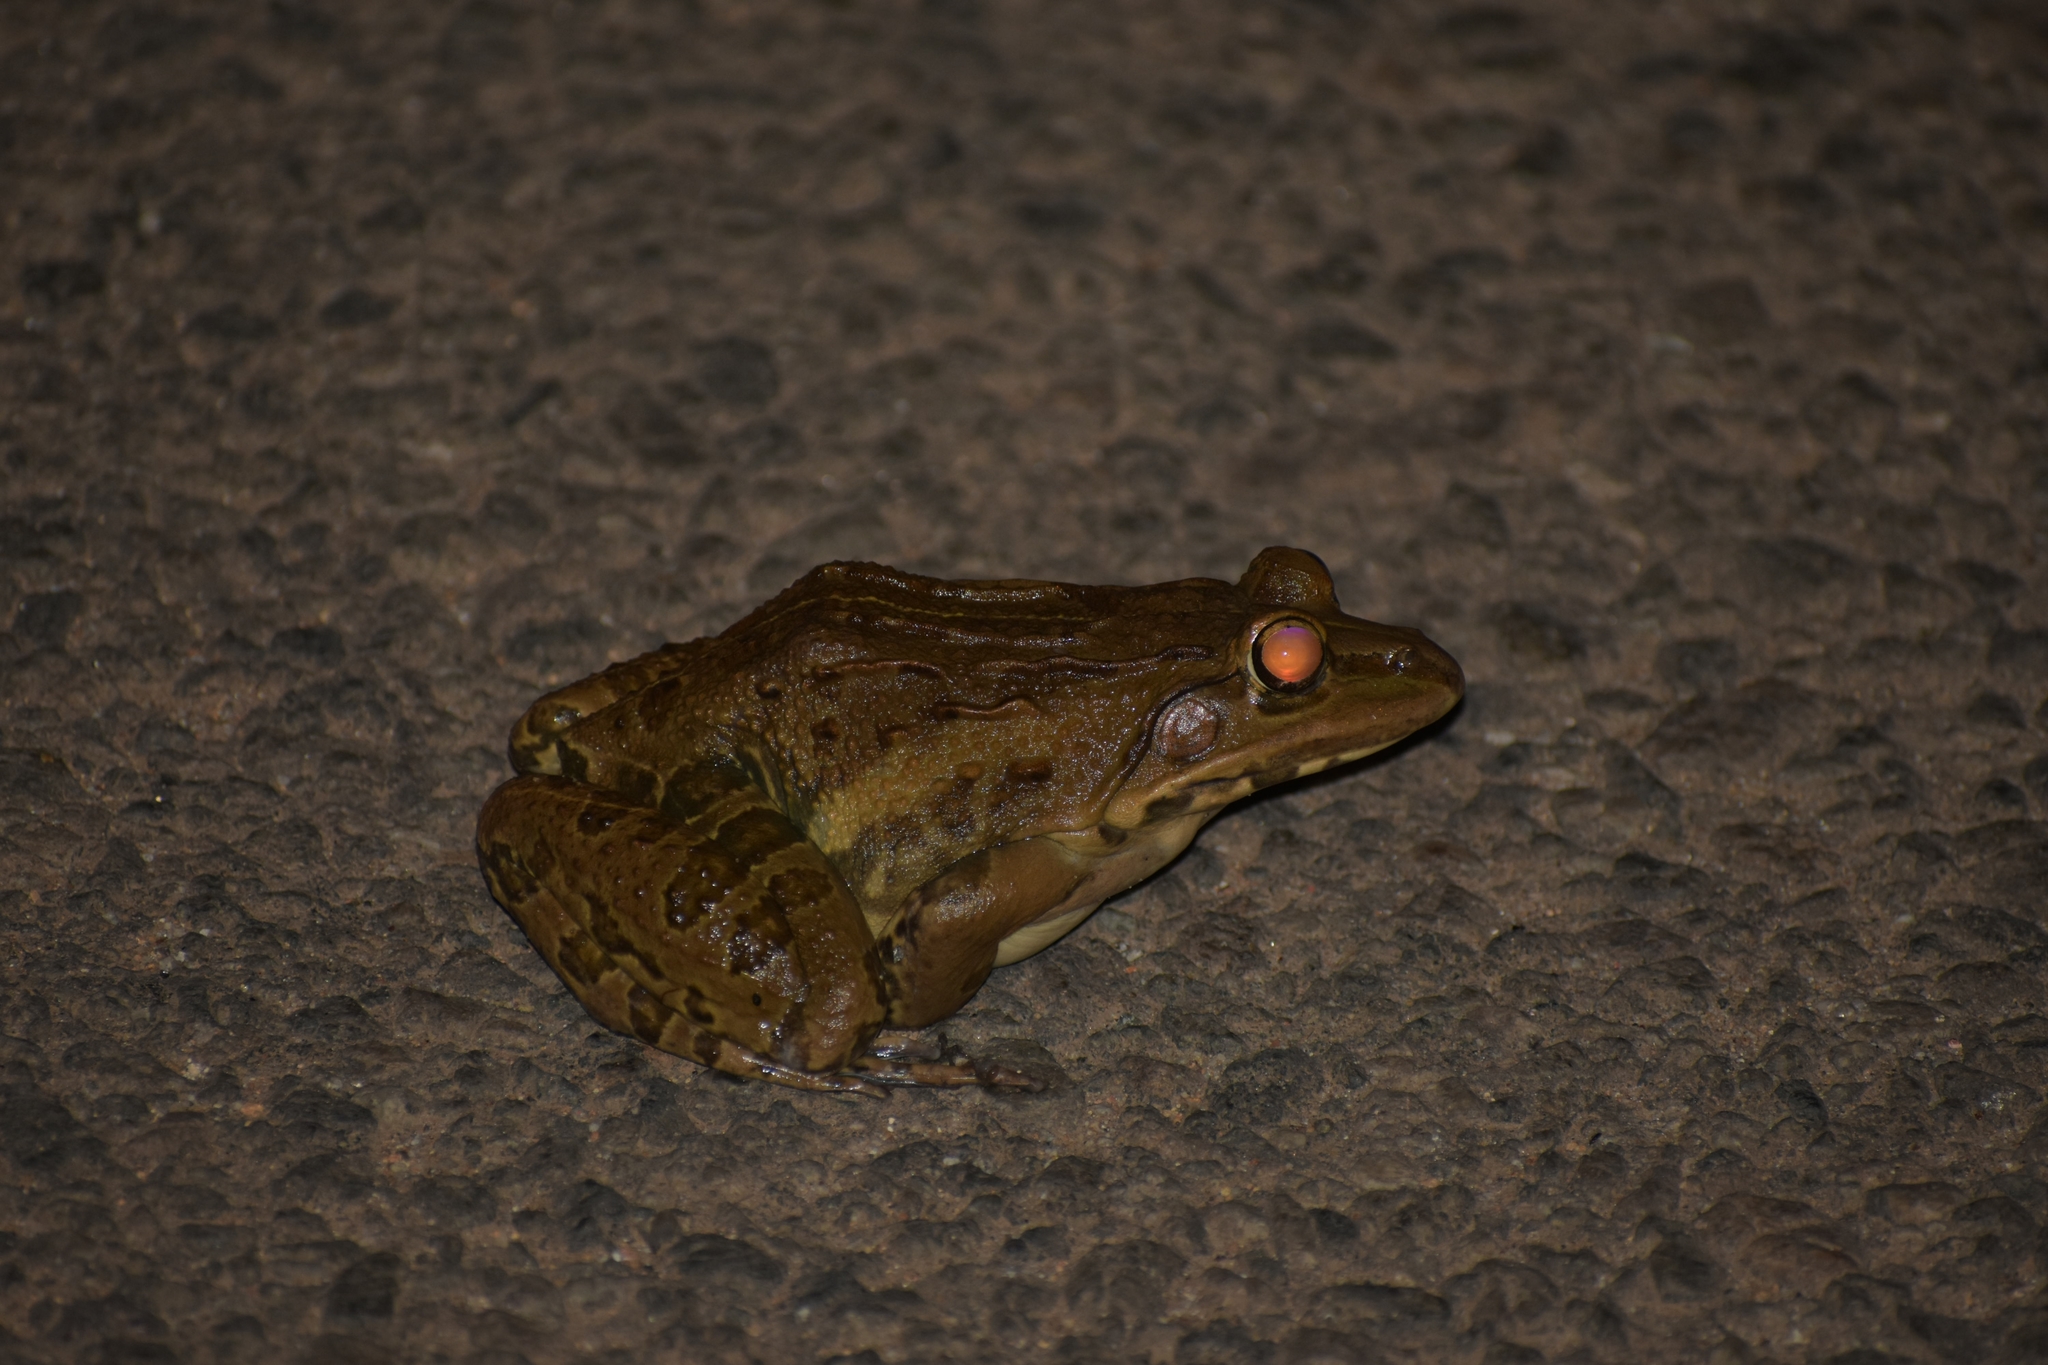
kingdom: Animalia
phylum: Chordata
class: Amphibia
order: Anura
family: Dicroglossidae
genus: Hoplobatrachus
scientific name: Hoplobatrachus tigerinus
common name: Indian bullfrog
